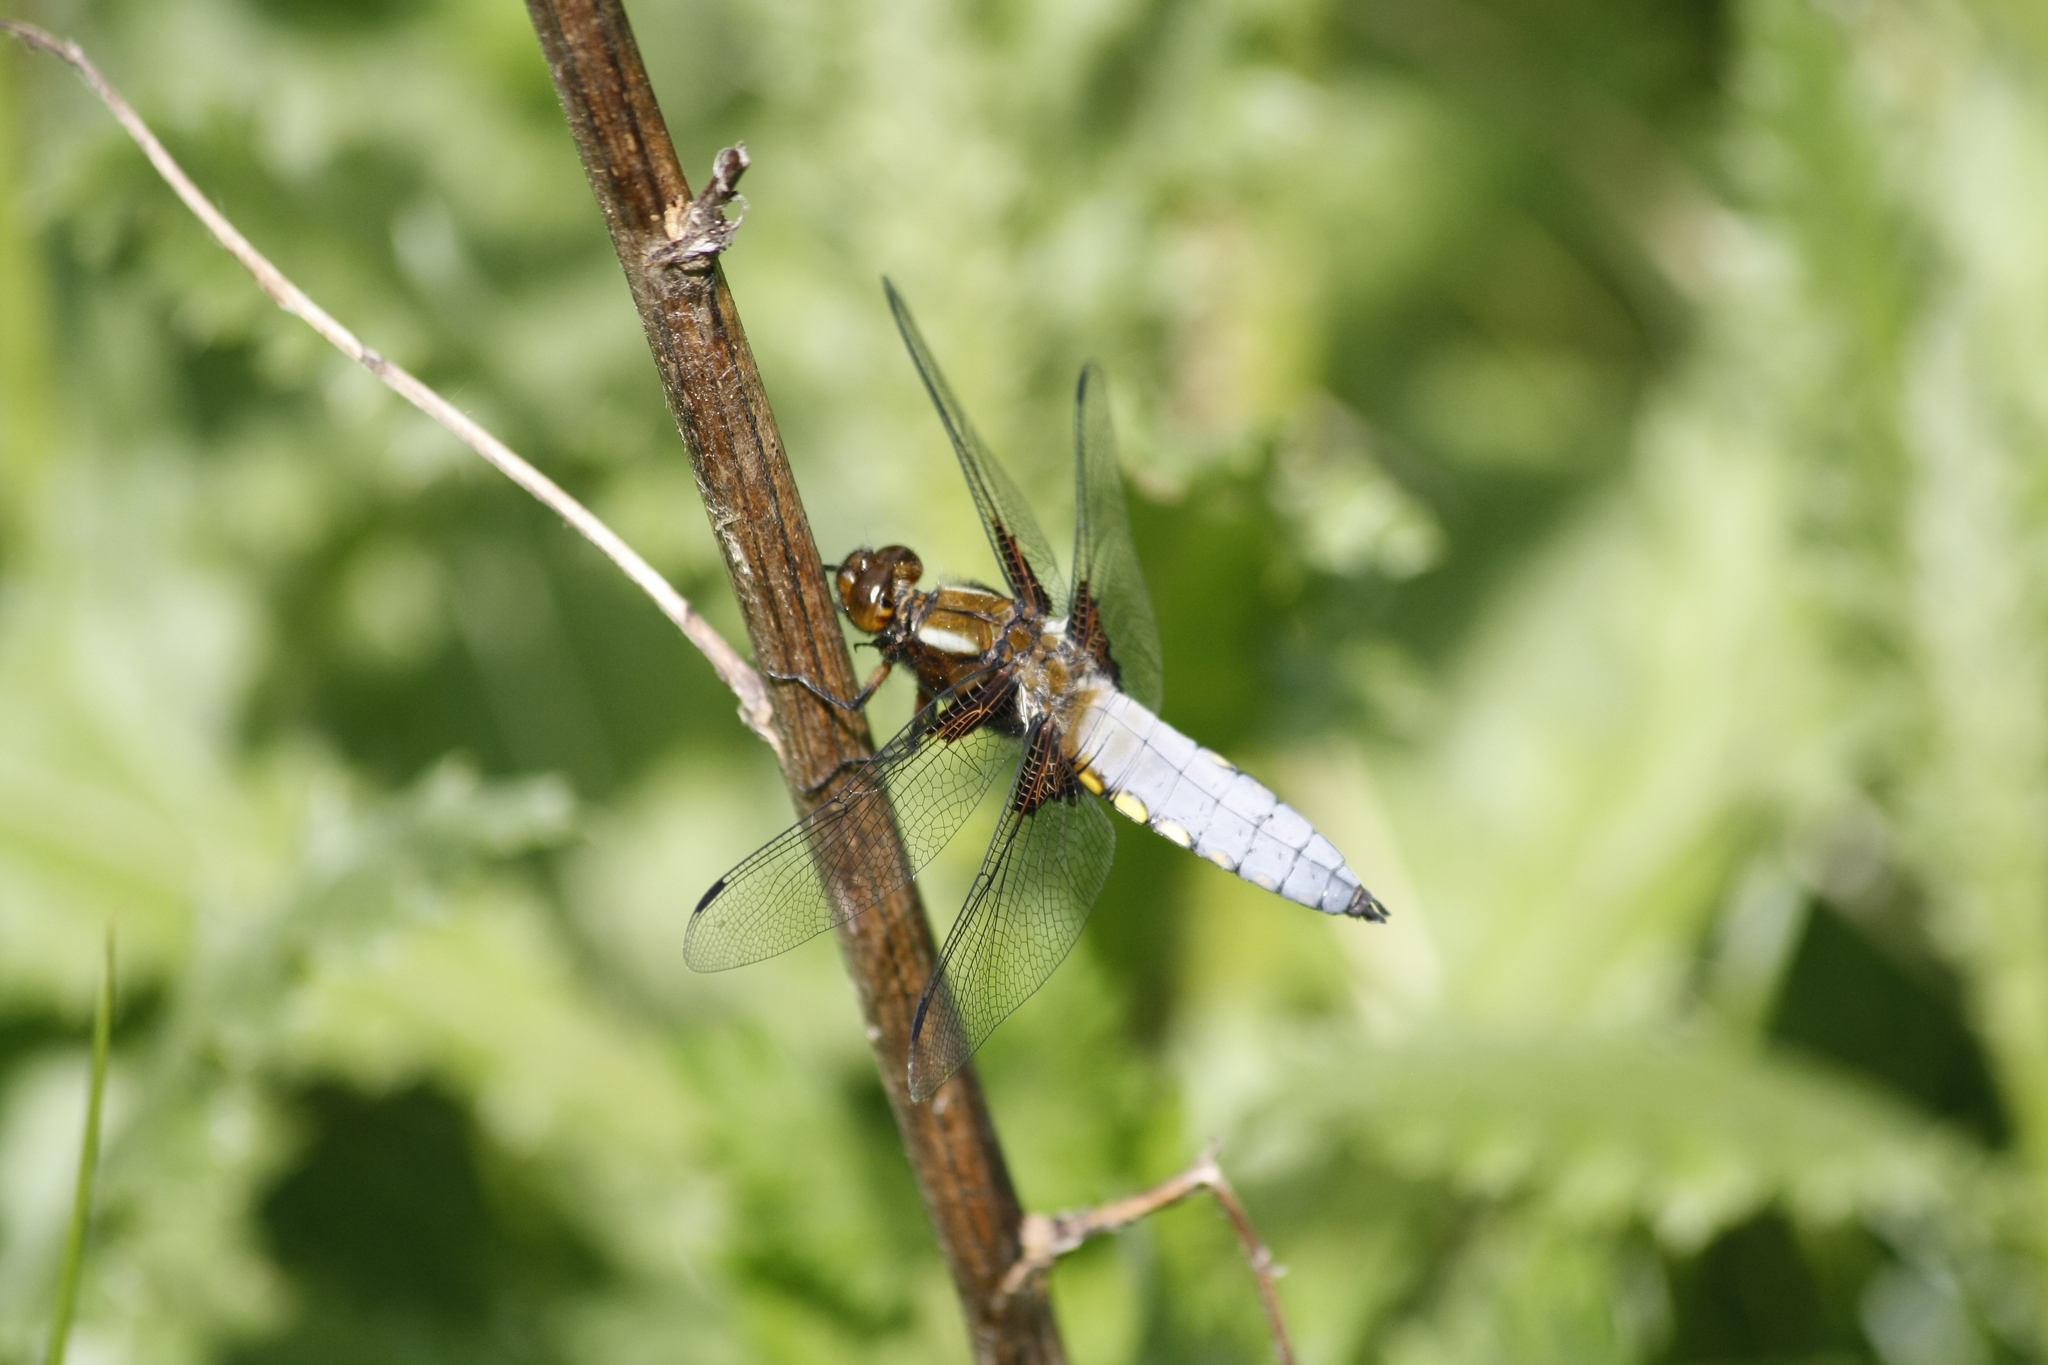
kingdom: Animalia
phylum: Arthropoda
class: Insecta
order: Odonata
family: Libellulidae
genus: Libellula
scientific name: Libellula depressa
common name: Broad-bodied chaser
